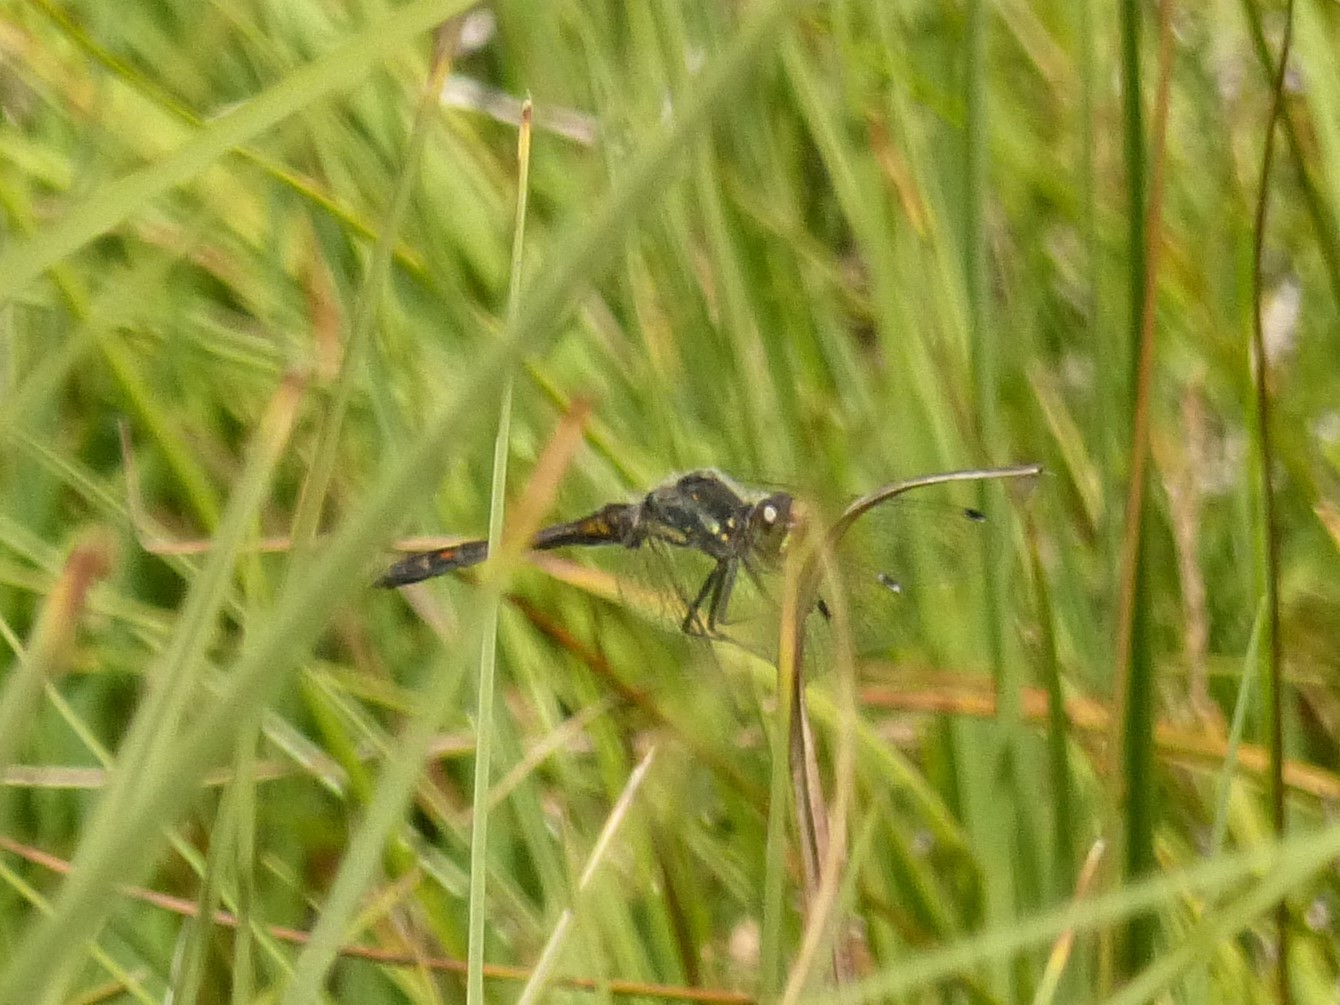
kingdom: Animalia
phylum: Arthropoda
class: Insecta
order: Odonata
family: Libellulidae
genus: Sympetrum
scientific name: Sympetrum danae
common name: Black darter
